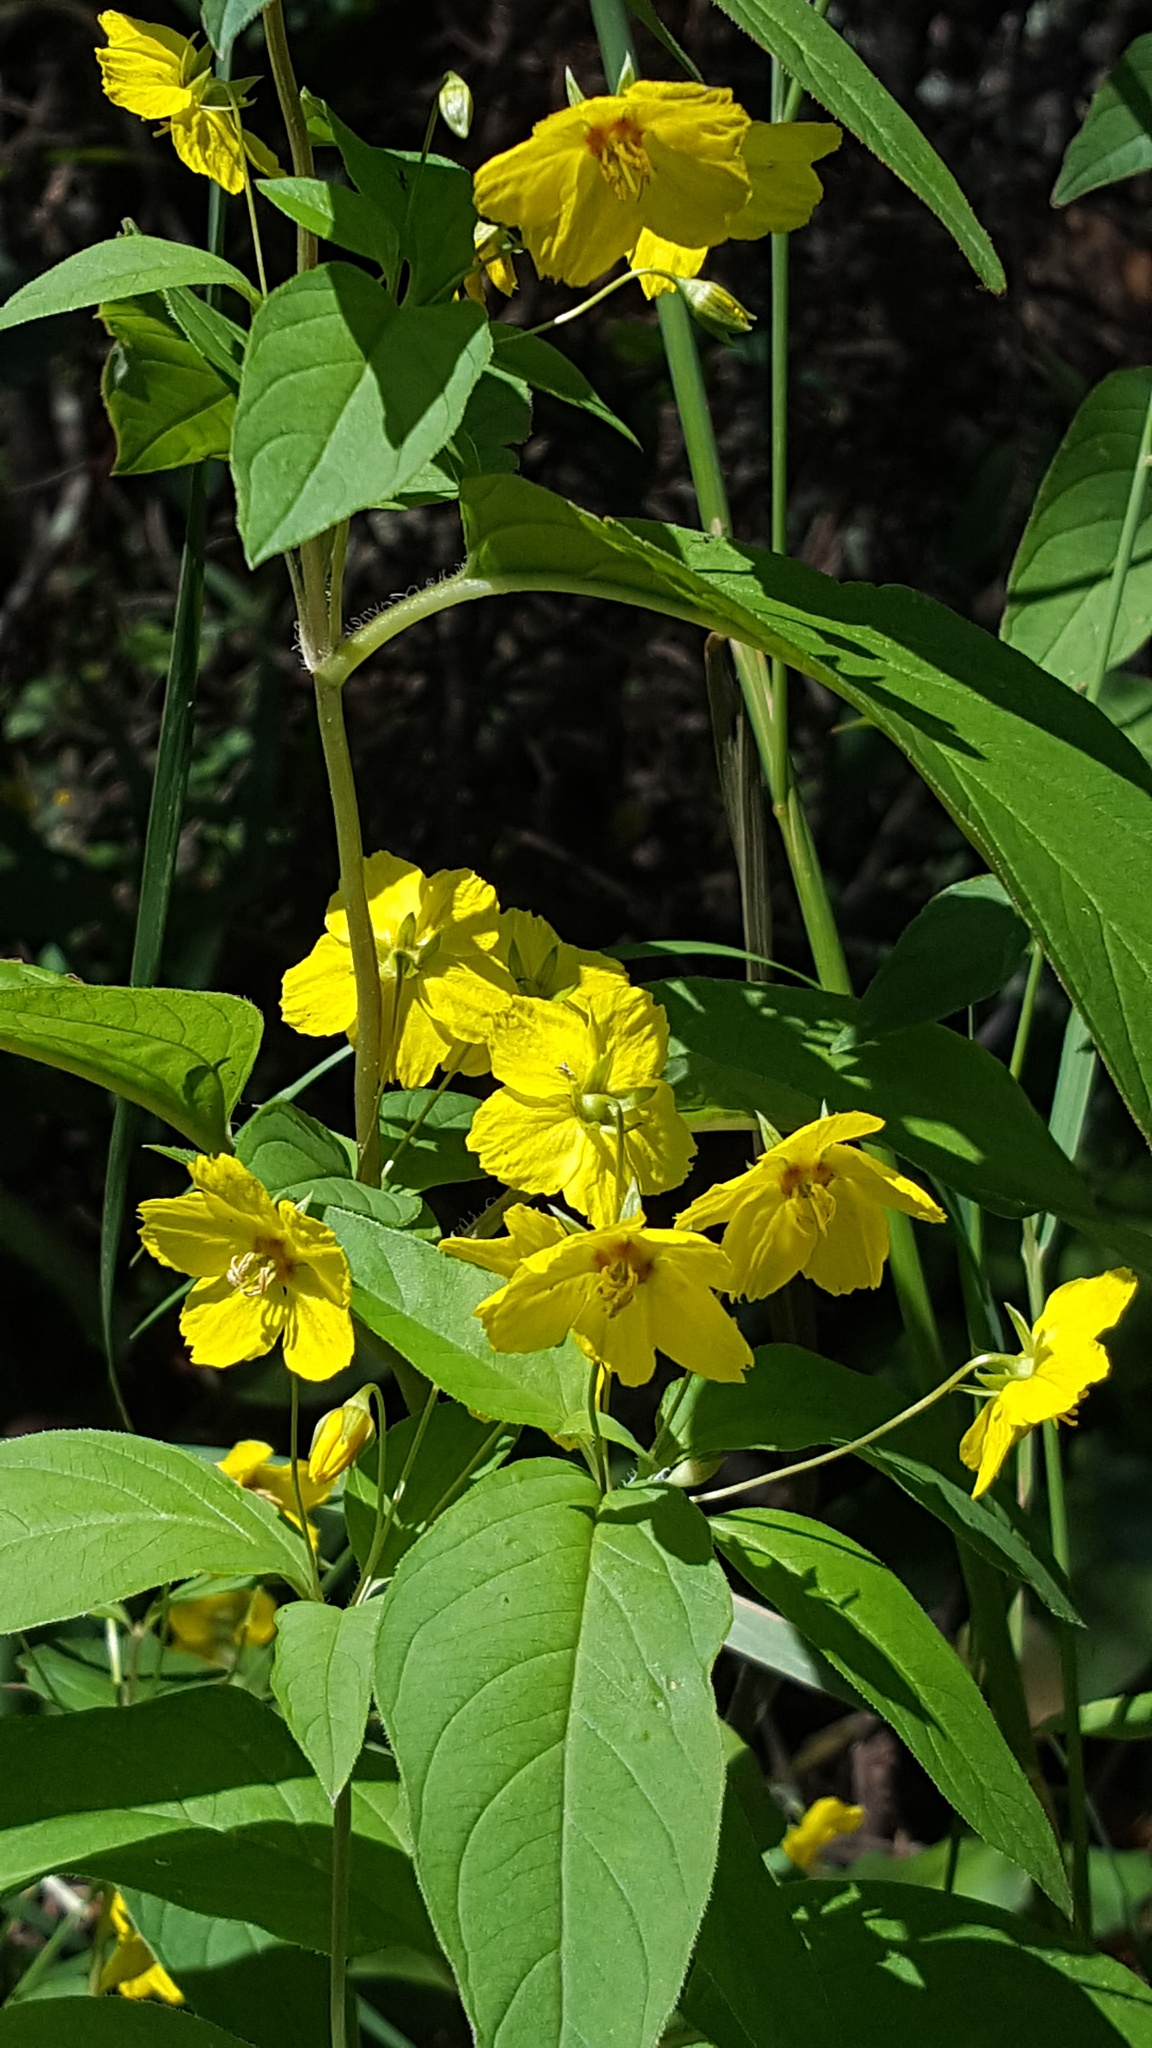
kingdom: Plantae
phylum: Tracheophyta
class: Magnoliopsida
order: Ericales
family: Primulaceae
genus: Lysimachia
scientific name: Lysimachia ciliata
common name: Fringed loosestrife
